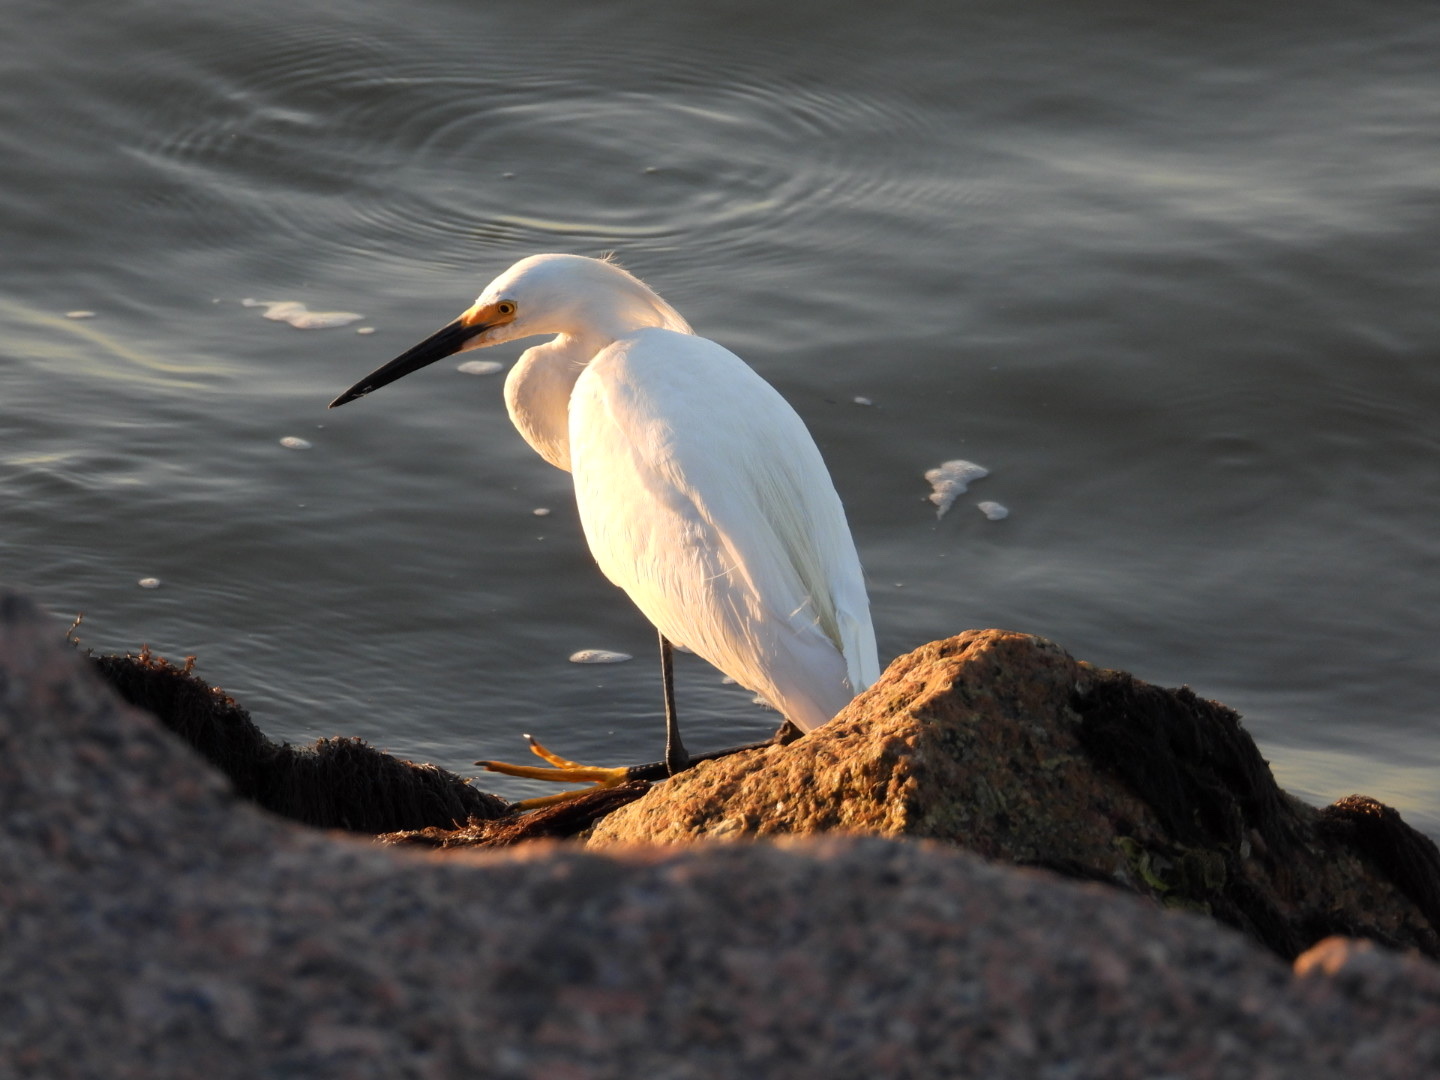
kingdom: Animalia
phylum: Chordata
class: Aves
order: Pelecaniformes
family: Ardeidae
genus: Egretta
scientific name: Egretta thula
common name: Snowy egret
